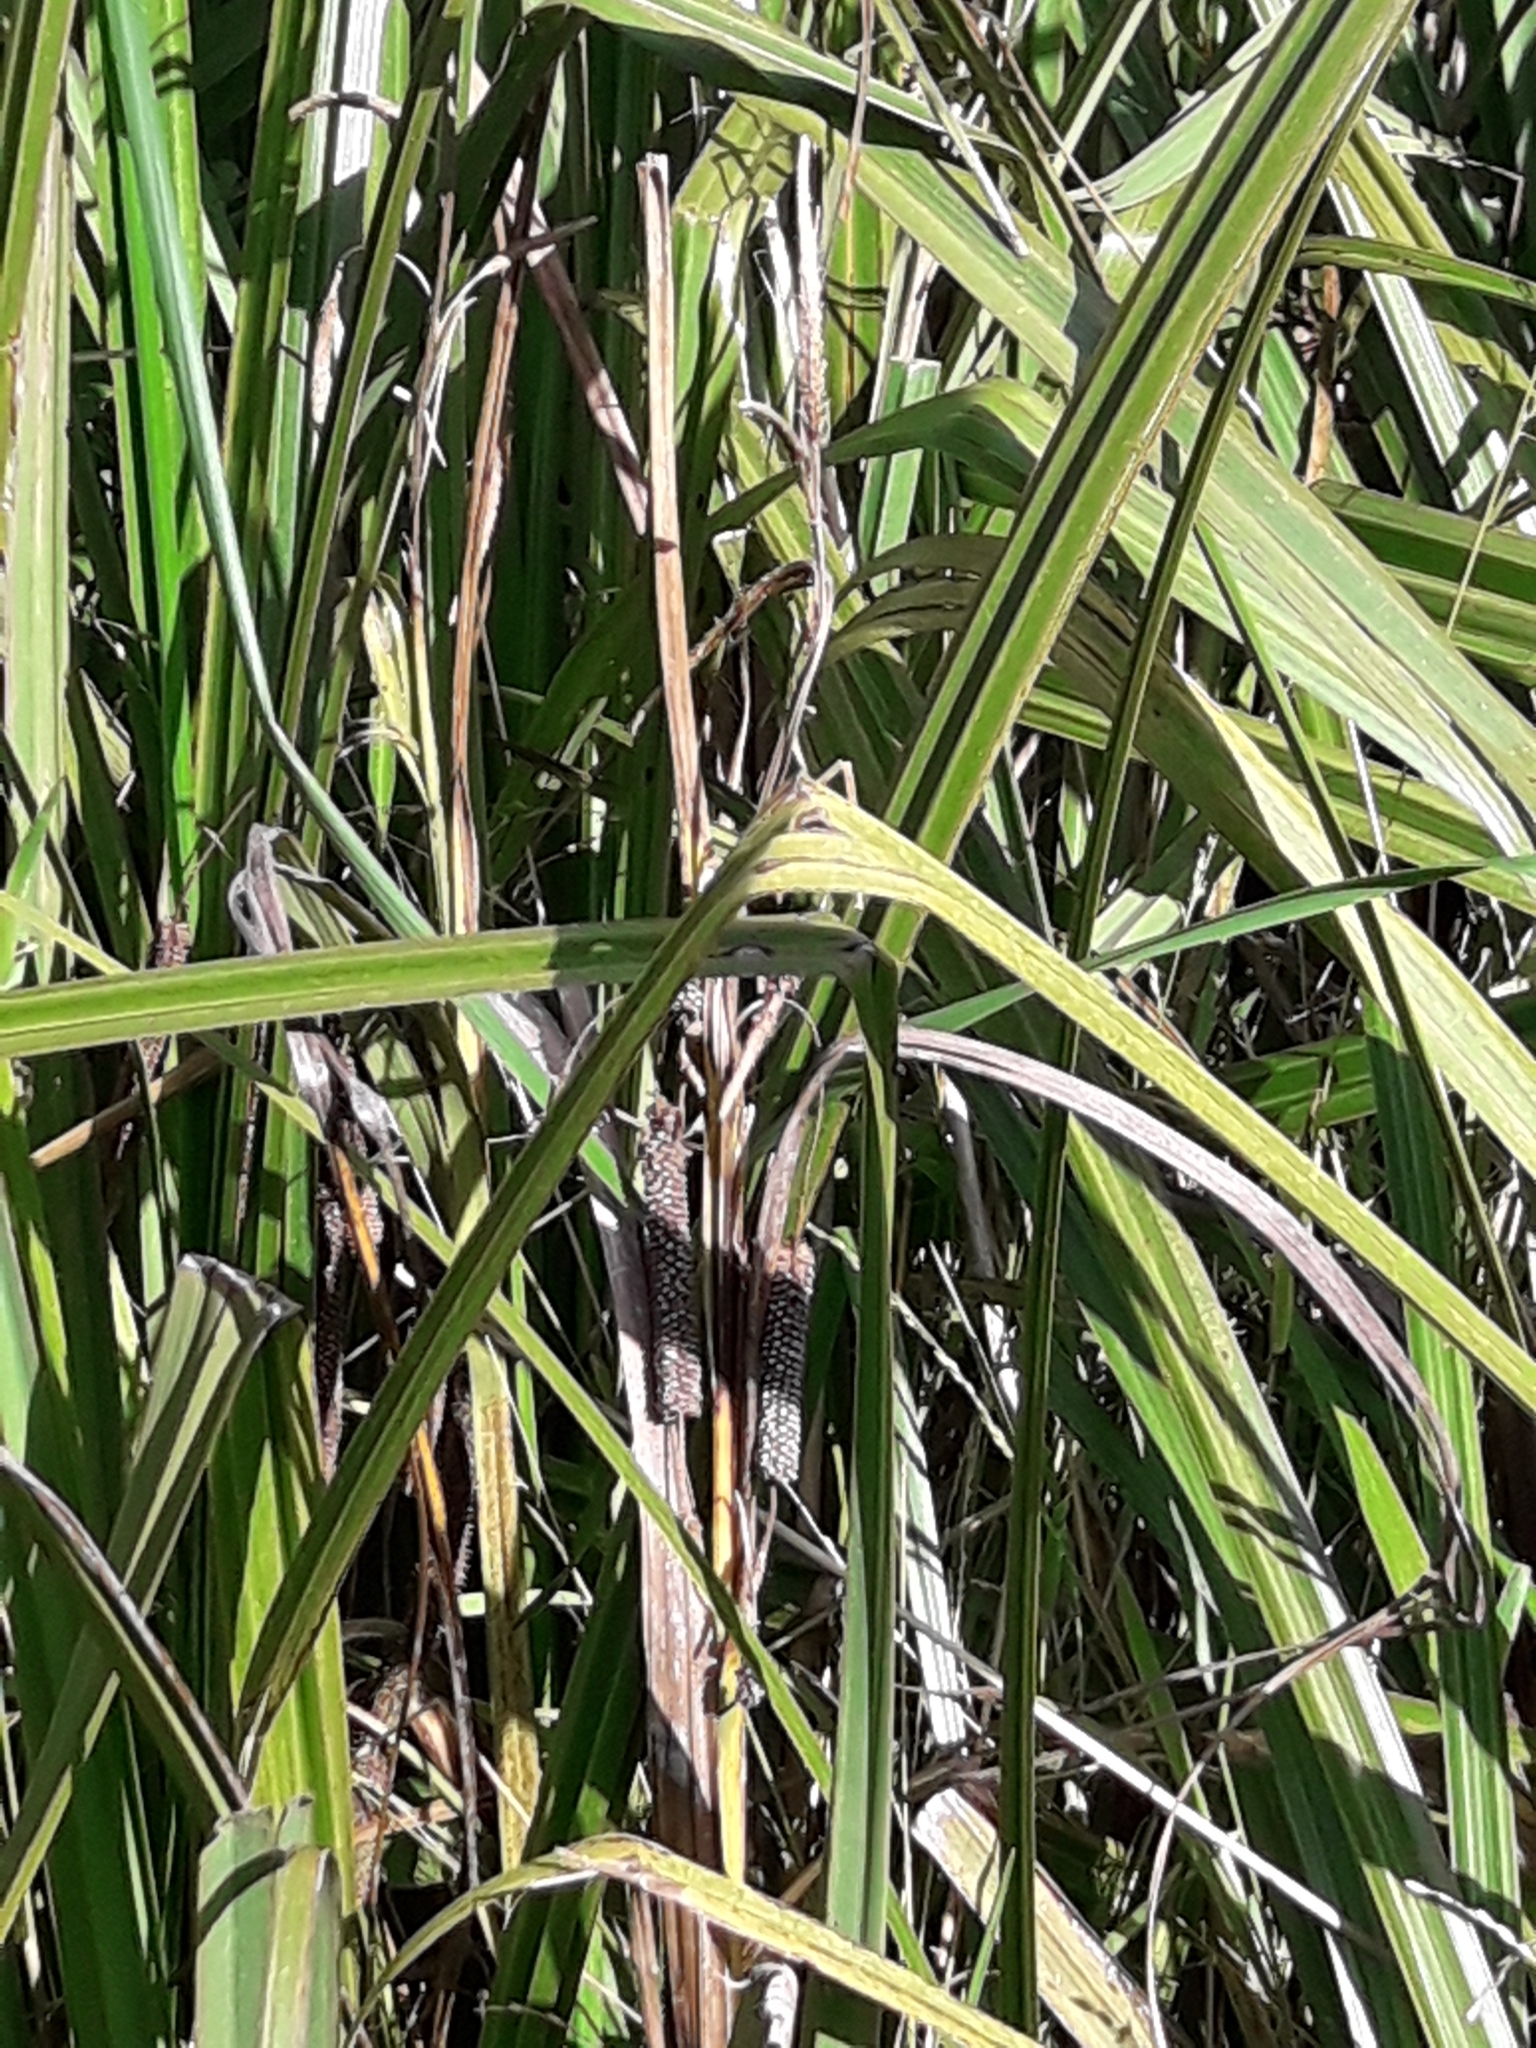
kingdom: Plantae
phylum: Tracheophyta
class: Liliopsida
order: Poales
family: Cyperaceae
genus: Carex
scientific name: Carex geminata
